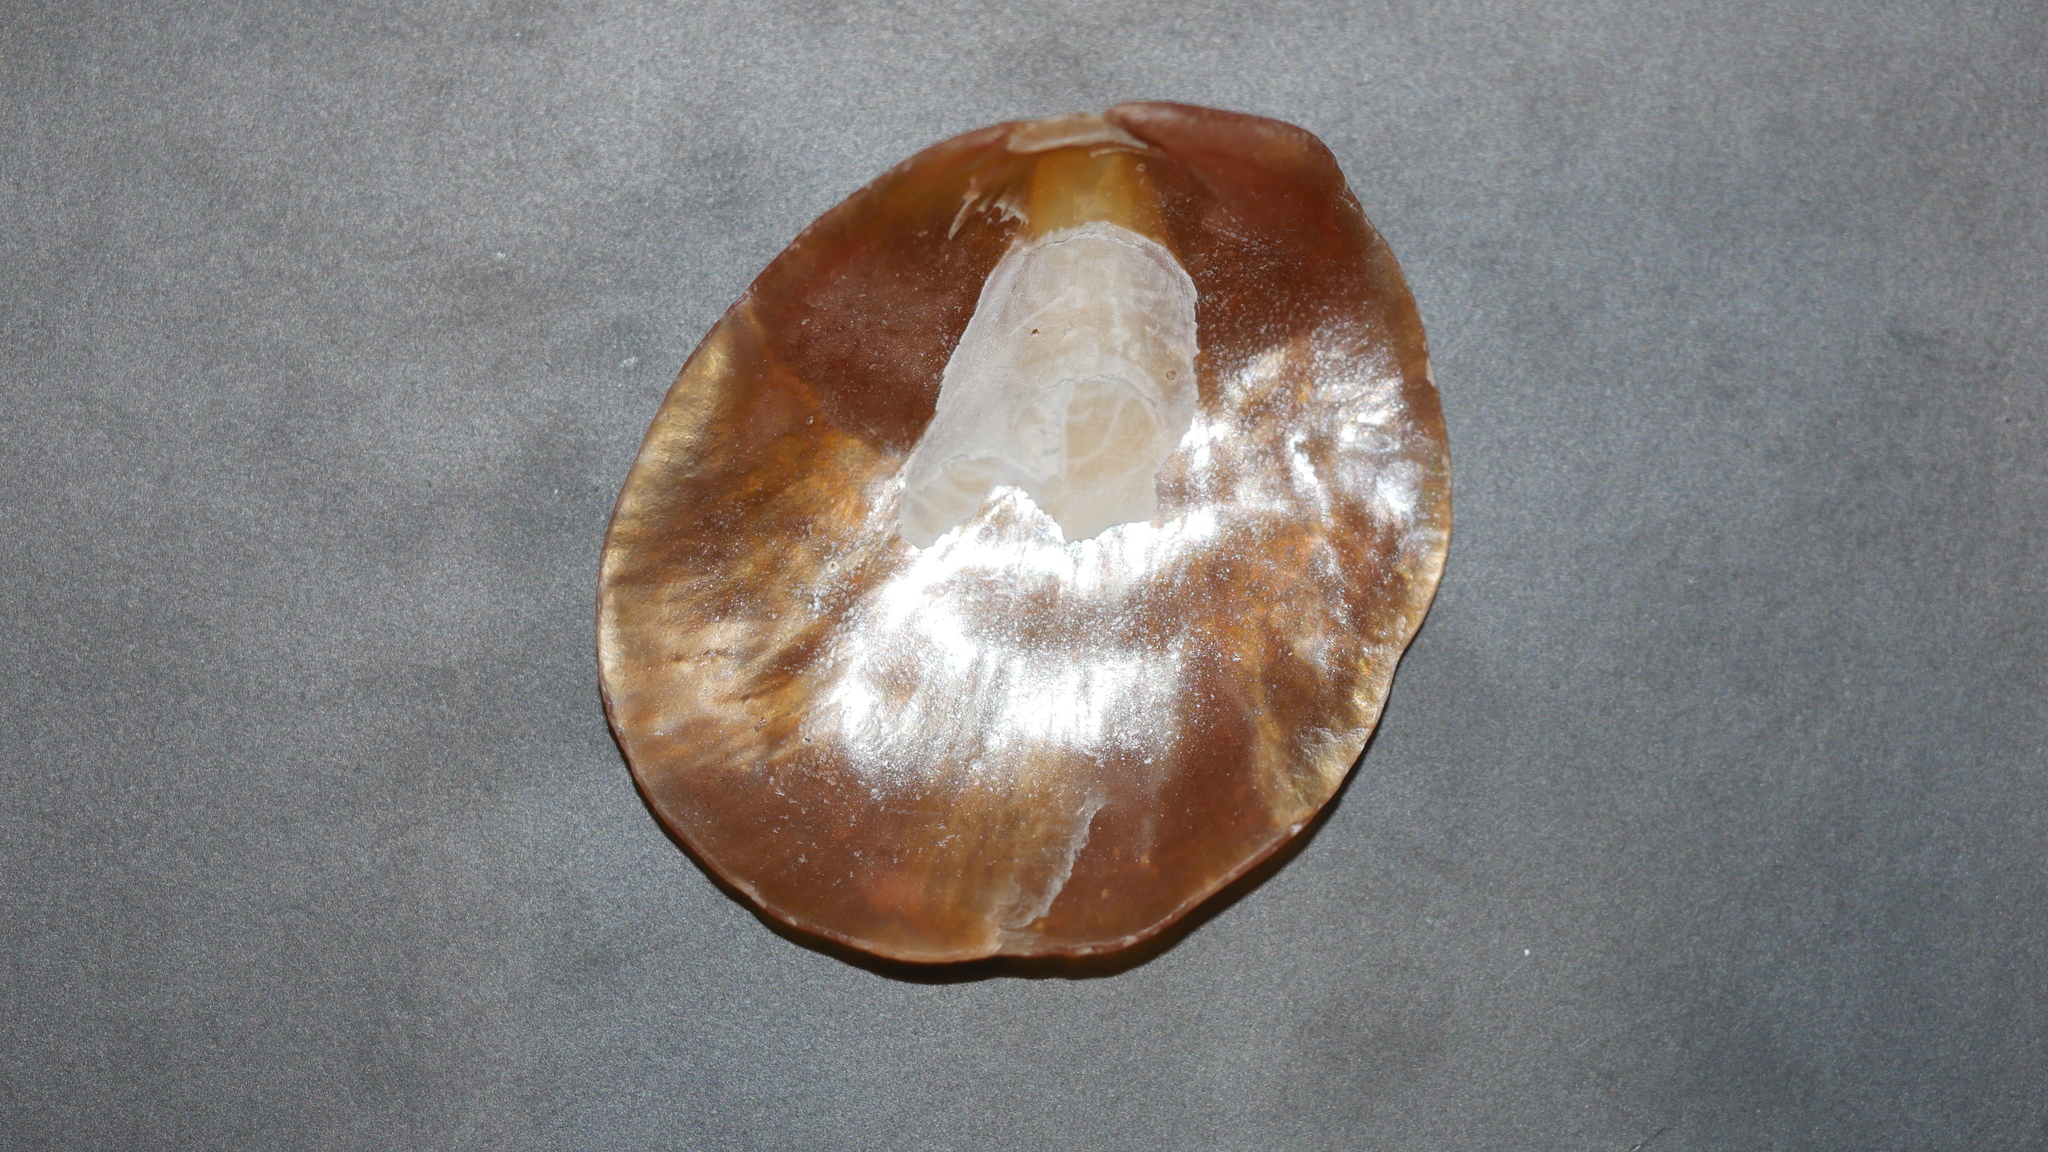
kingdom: Animalia
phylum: Mollusca
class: Bivalvia
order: Pectinida
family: Anomiidae
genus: Anomia
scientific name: Anomia simplex
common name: Common jingle shell
